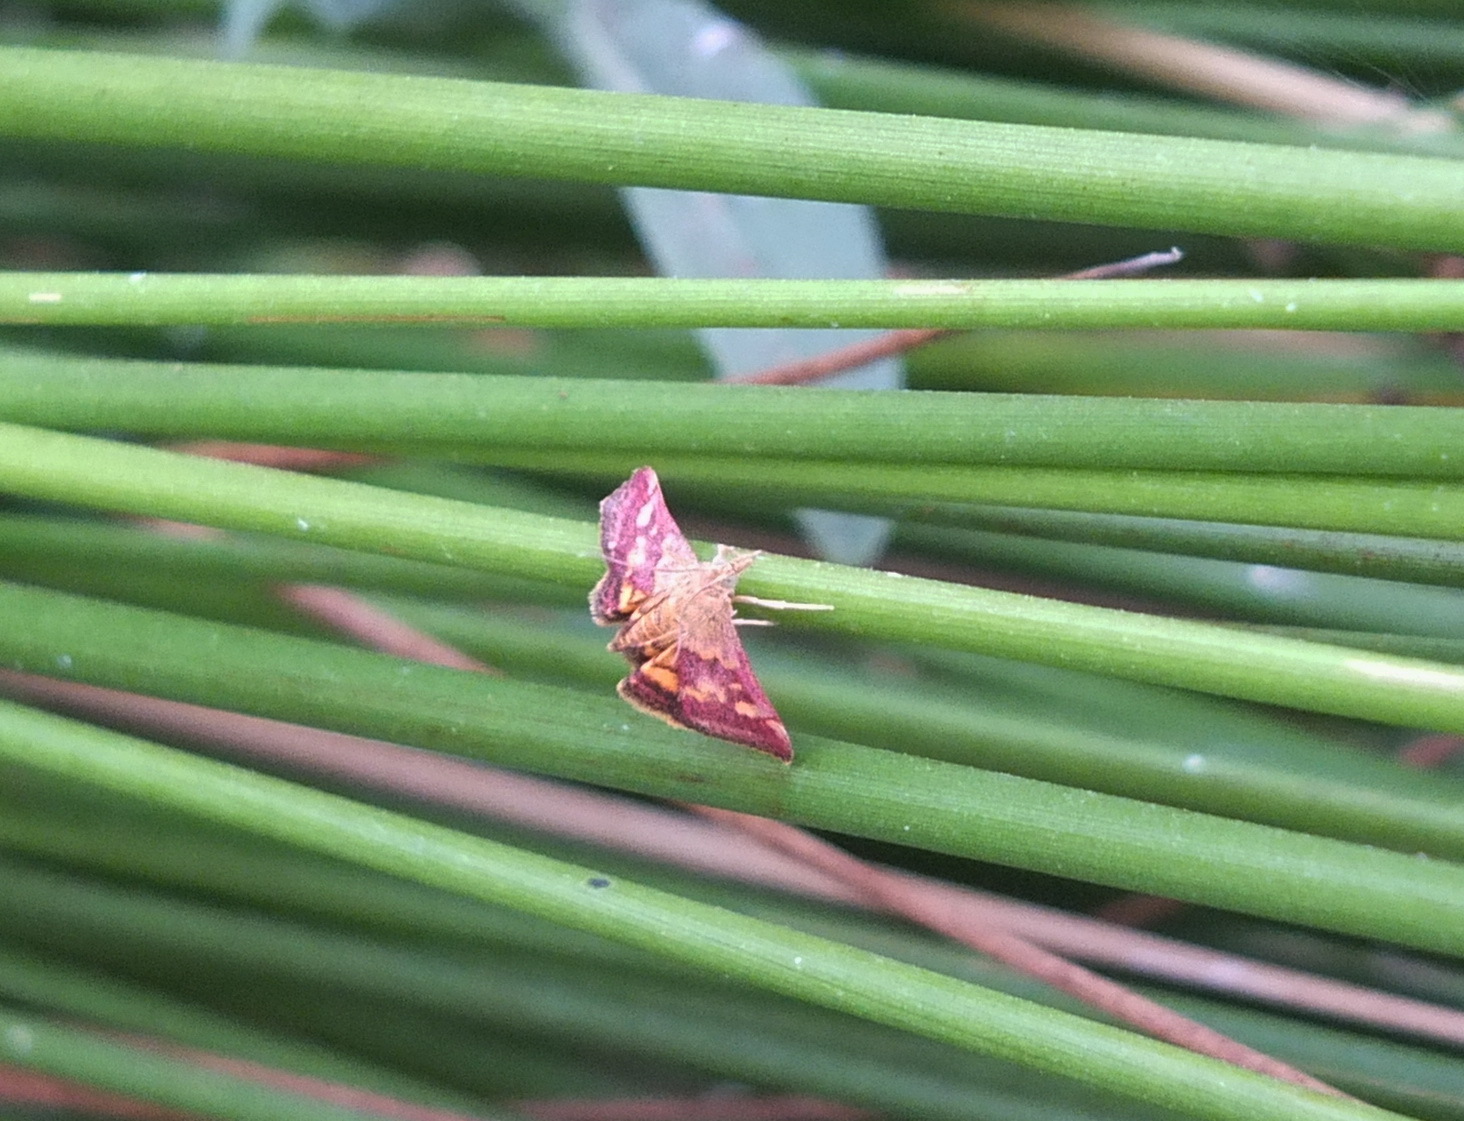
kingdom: Animalia
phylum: Arthropoda
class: Insecta
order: Lepidoptera
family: Crambidae
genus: Pyrausta
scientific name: Pyrausta purpuralis
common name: Common purple & gold
